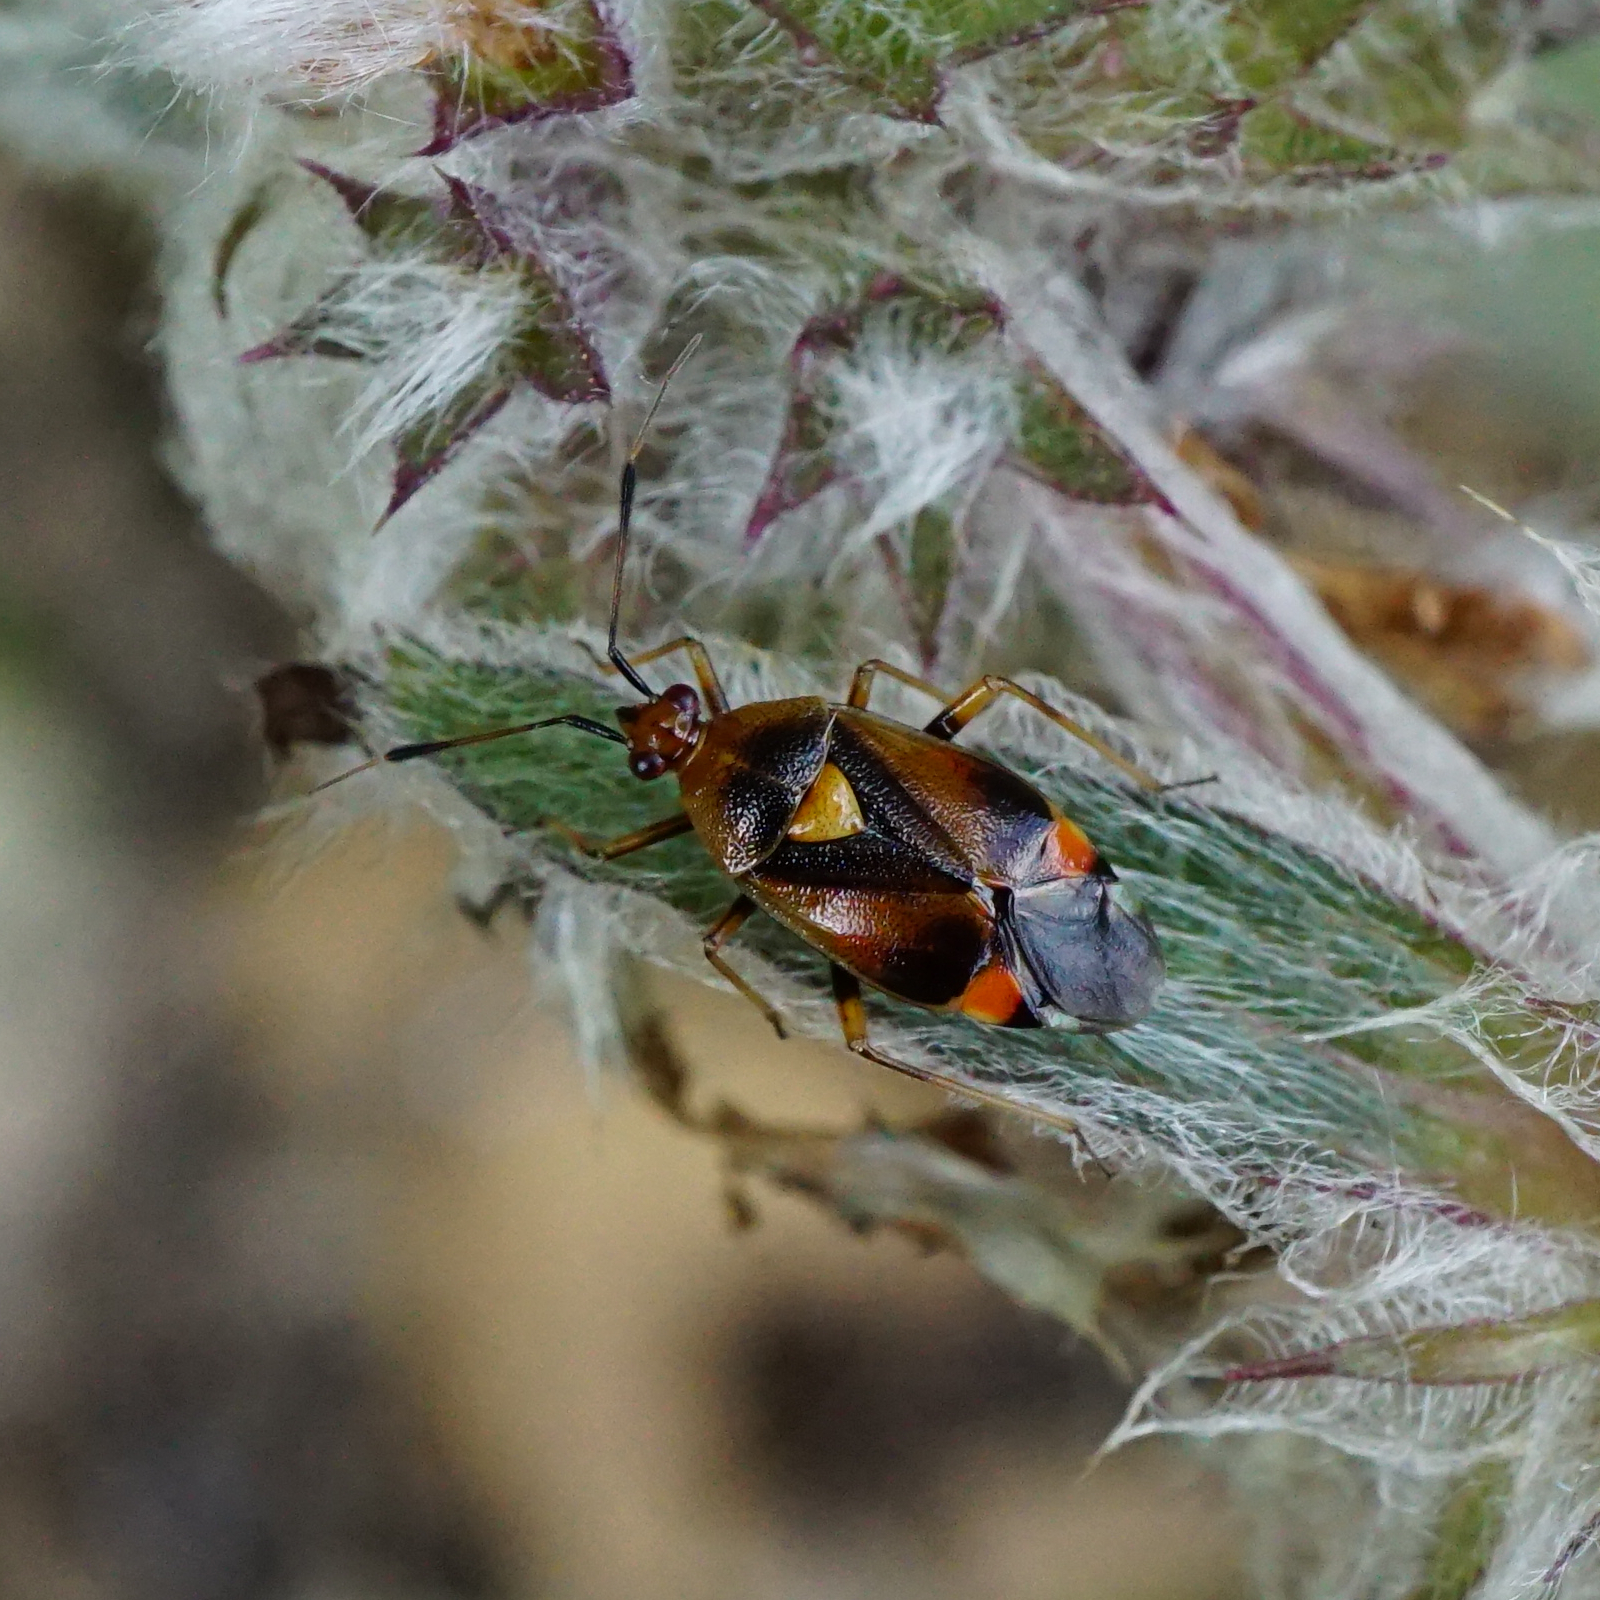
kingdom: Animalia
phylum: Arthropoda
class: Insecta
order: Hemiptera
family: Miridae
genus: Deraeocoris
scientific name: Deraeocoris ruber
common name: Plant bug
